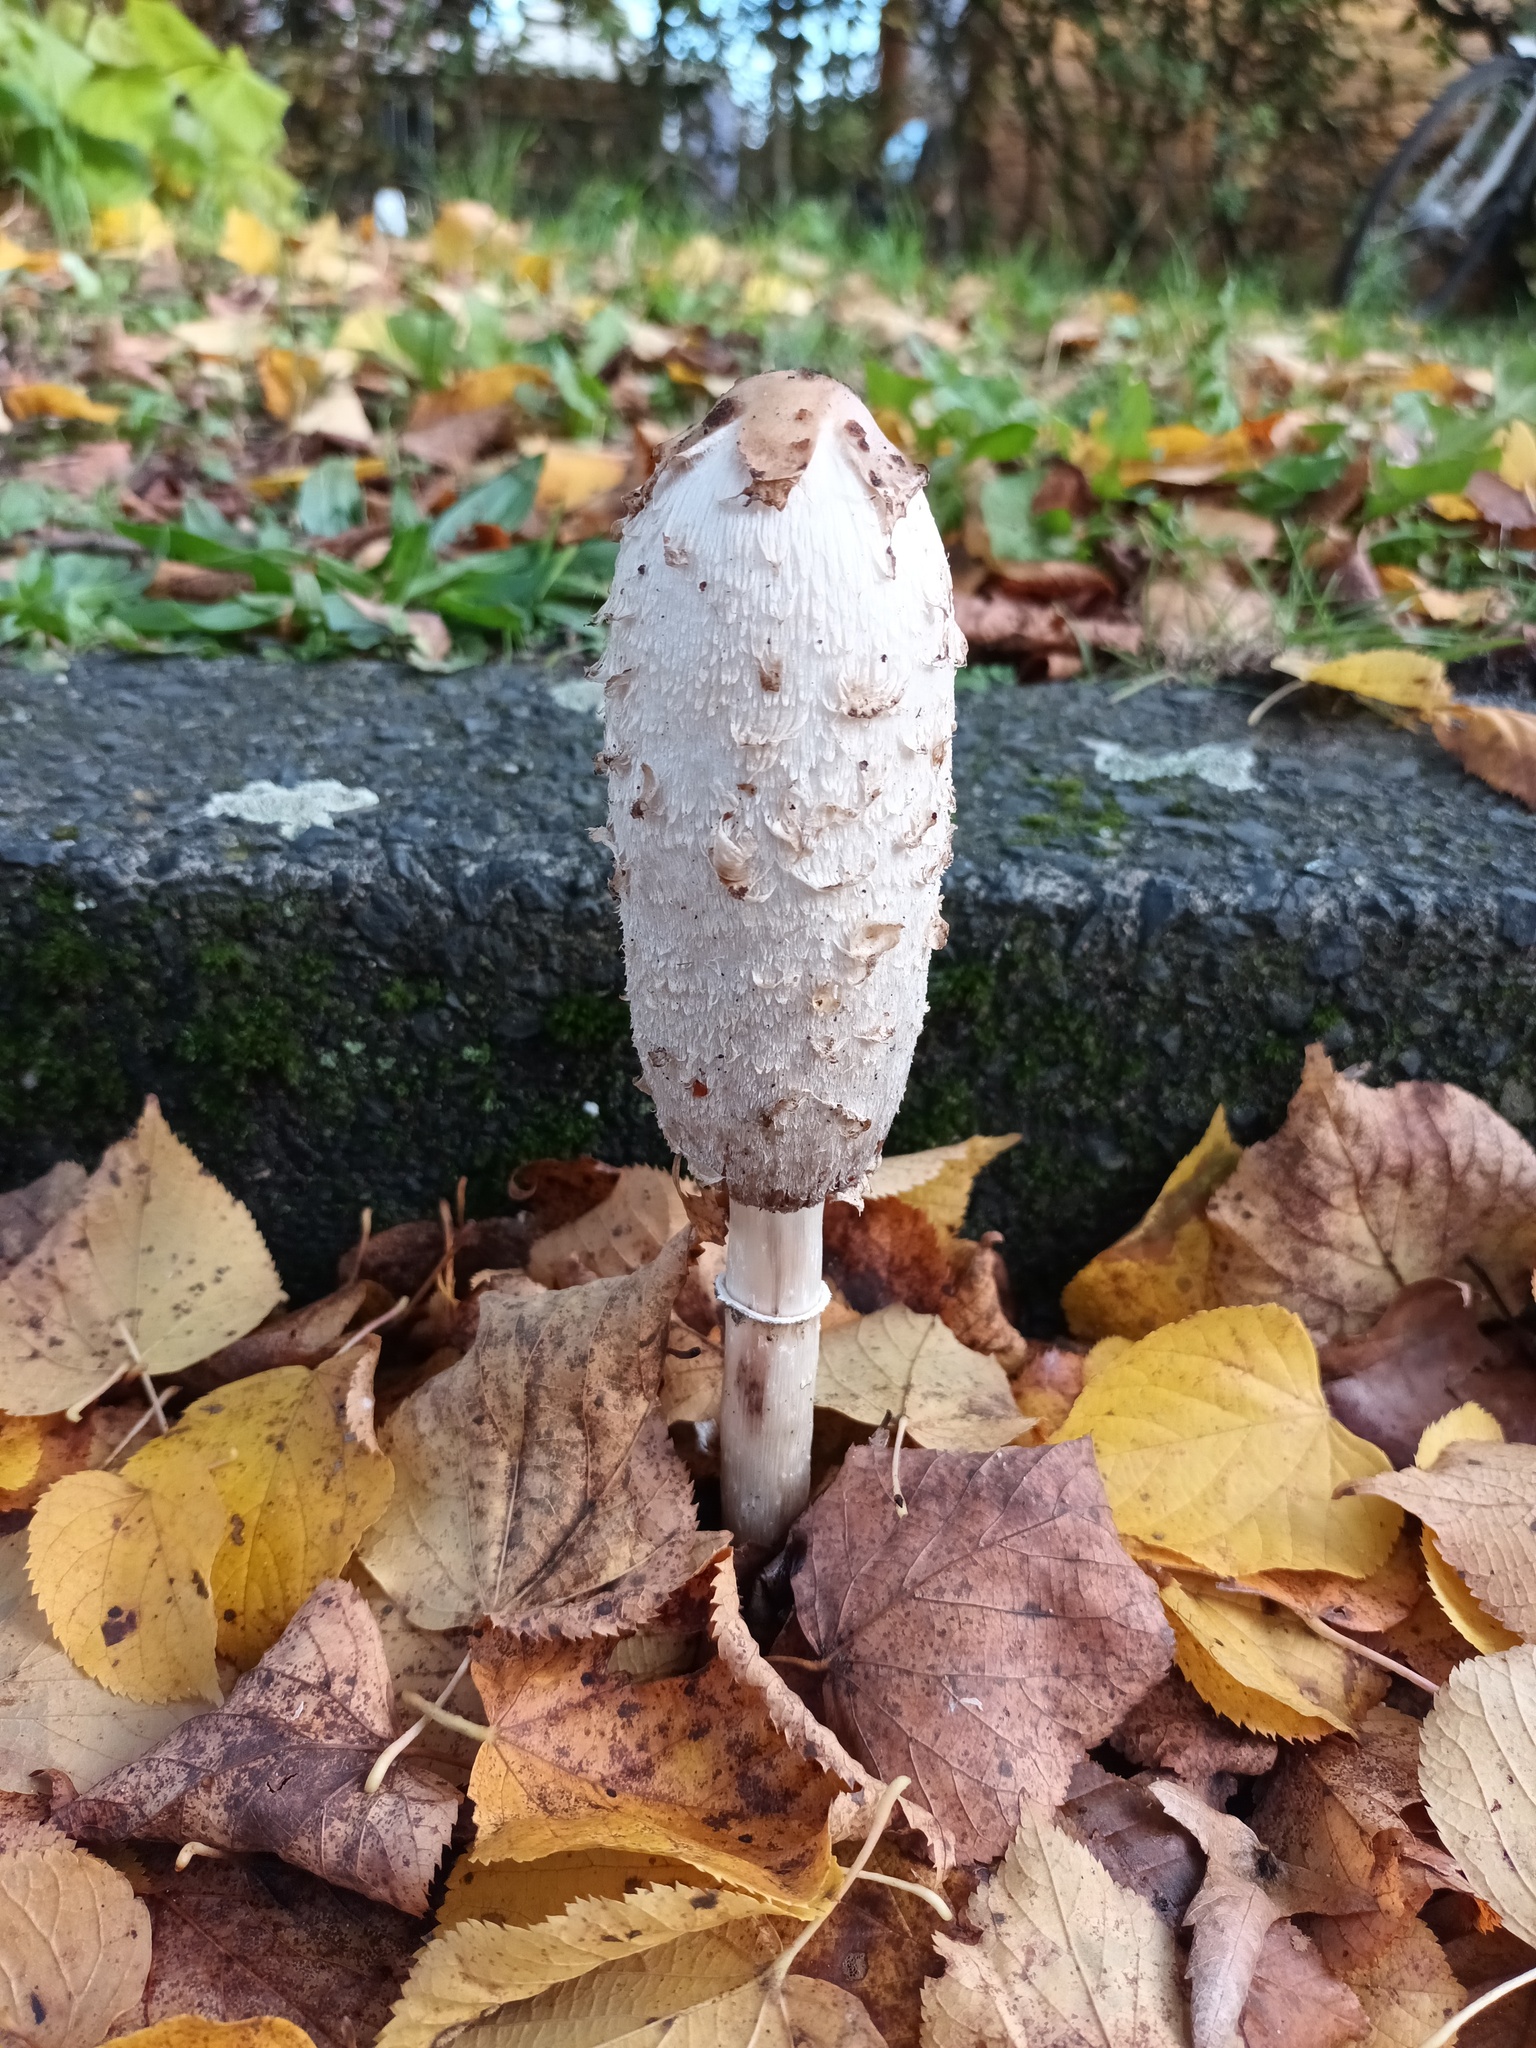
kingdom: Fungi
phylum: Basidiomycota
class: Agaricomycetes
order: Agaricales
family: Agaricaceae
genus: Coprinus
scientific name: Coprinus comatus
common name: Lawyer's wig
